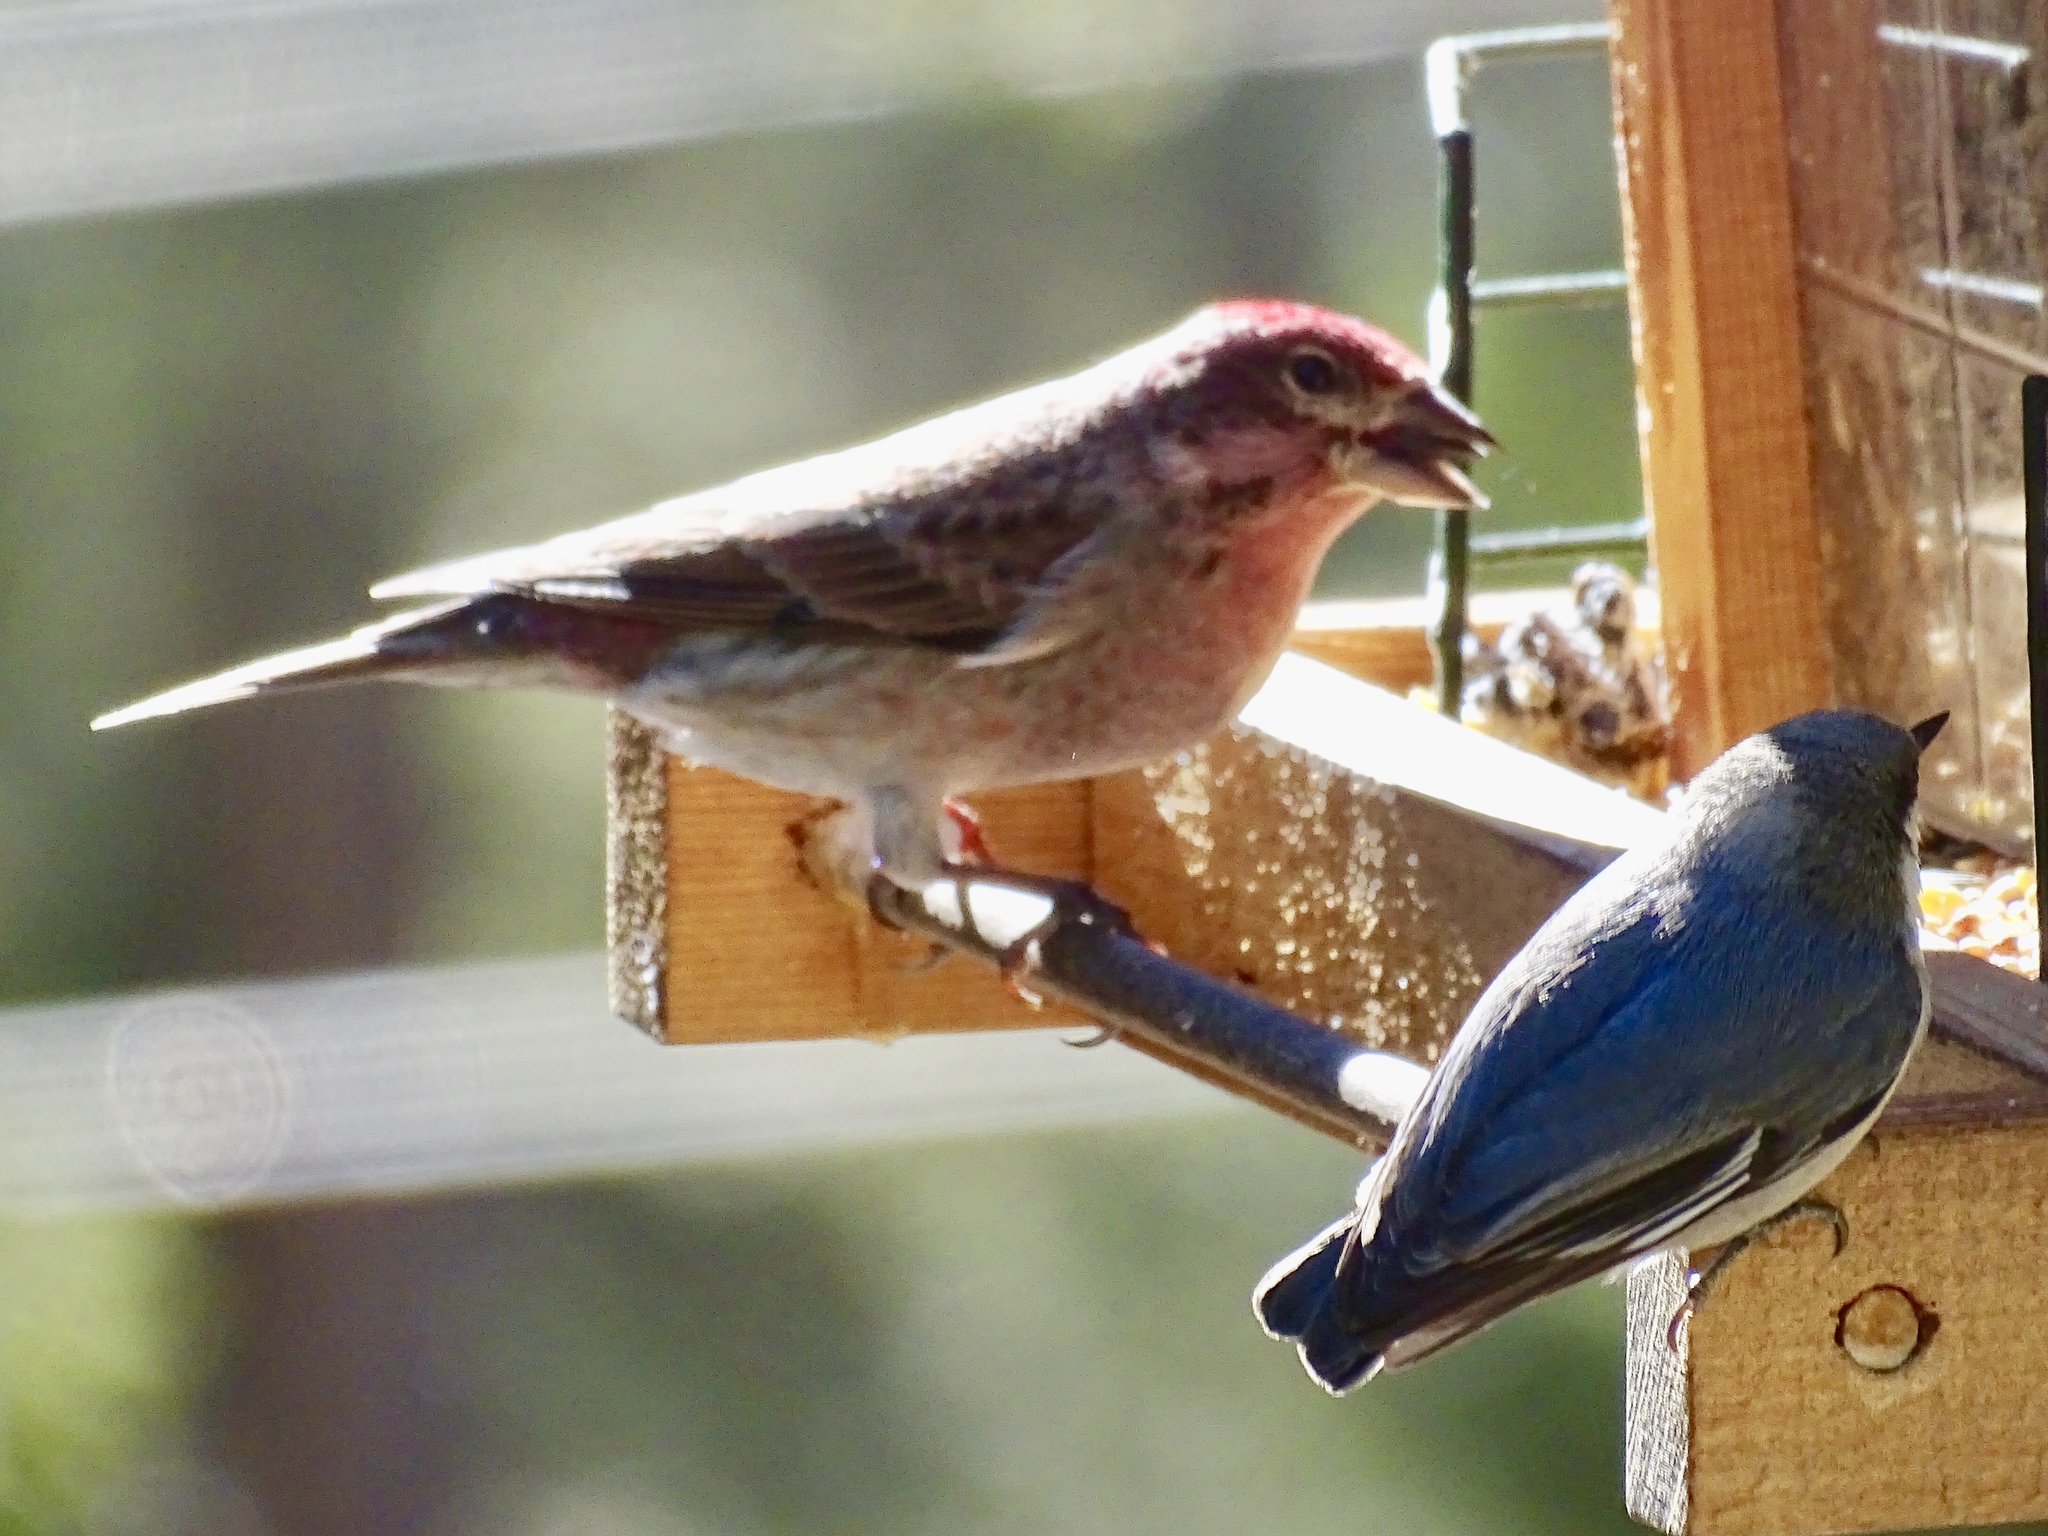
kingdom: Animalia
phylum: Chordata
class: Aves
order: Passeriformes
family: Sittidae
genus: Sitta
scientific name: Sitta pygmaea
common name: Pygmy nuthatch
